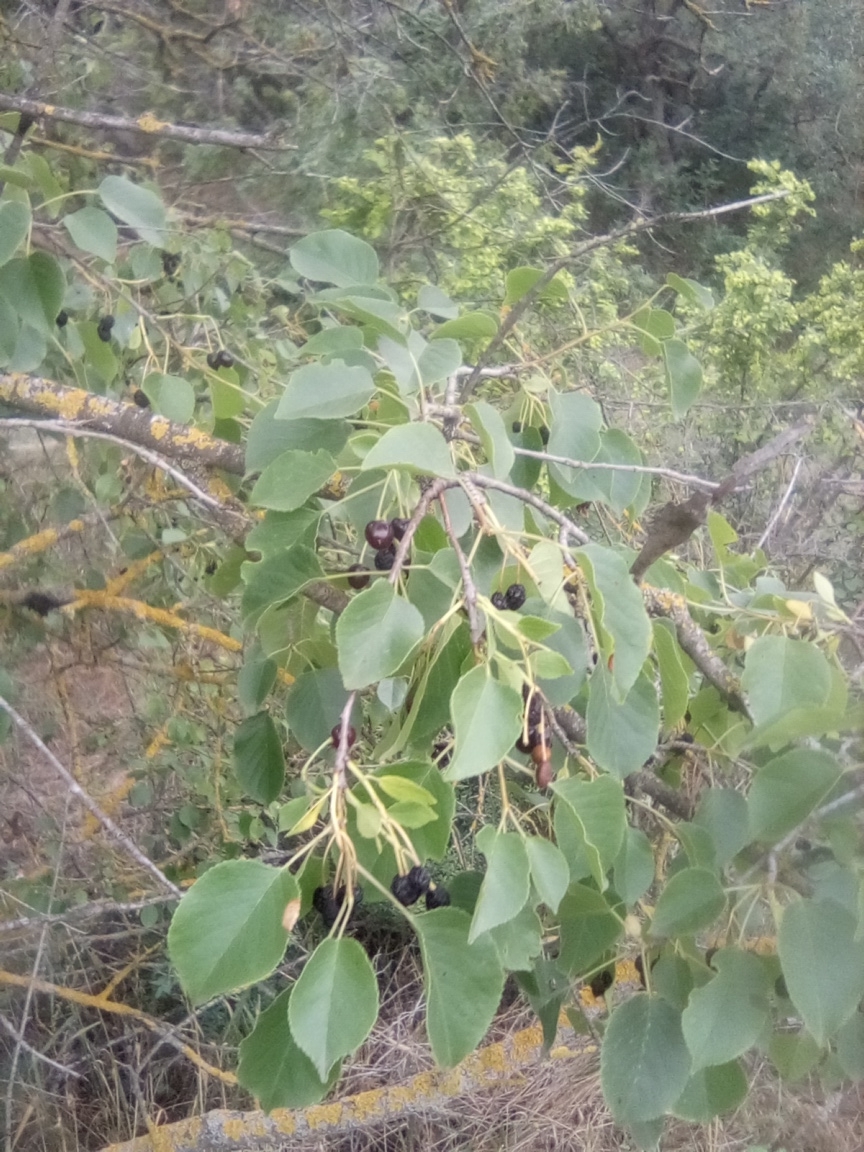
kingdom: Plantae
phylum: Tracheophyta
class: Magnoliopsida
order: Rosales
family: Rosaceae
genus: Prunus
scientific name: Prunus mahaleb
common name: Mahaleb cherry
